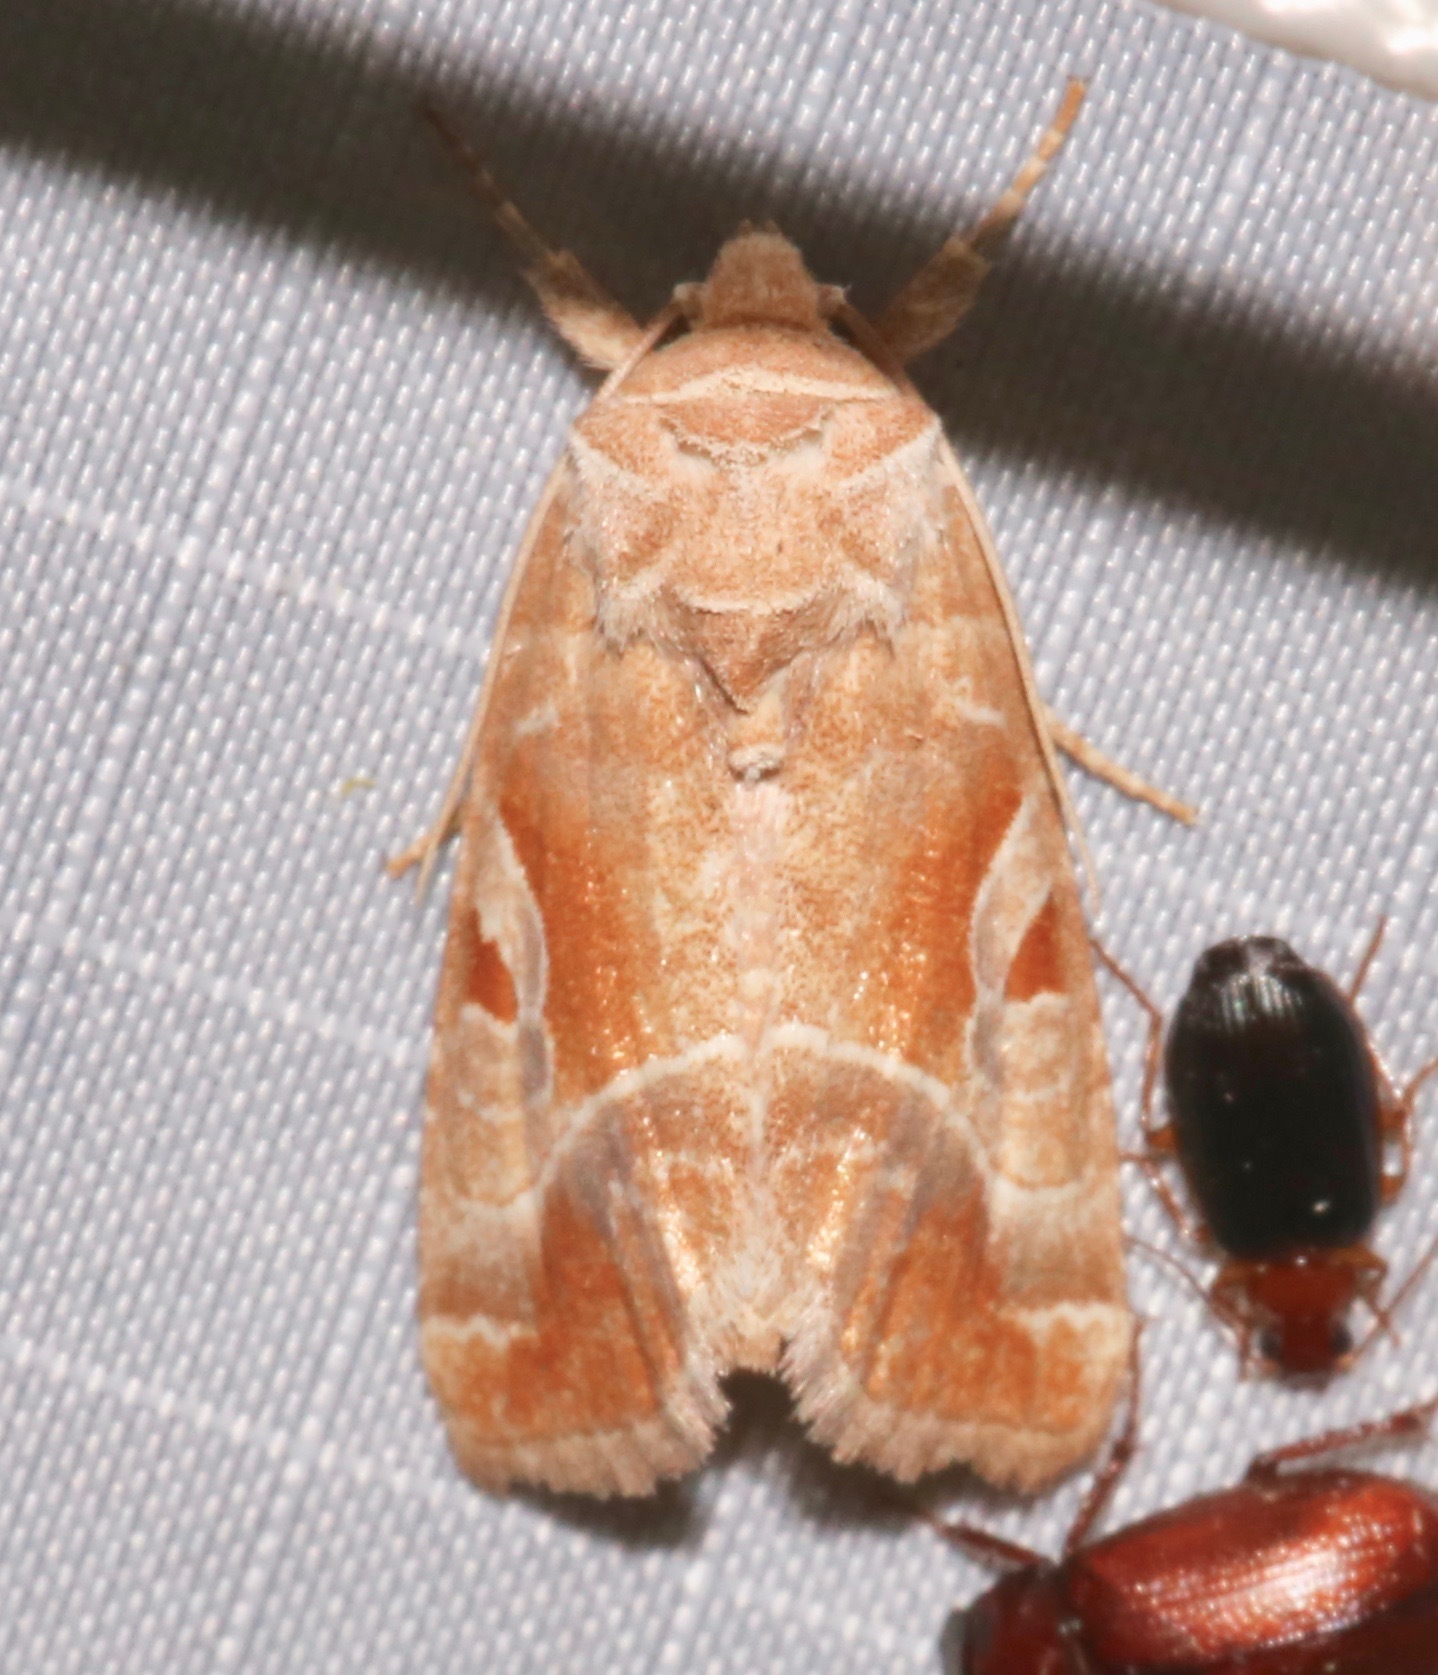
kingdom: Animalia
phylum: Arthropoda
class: Insecta
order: Lepidoptera
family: Noctuidae
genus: Hexorthodes
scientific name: Hexorthodes accurata
